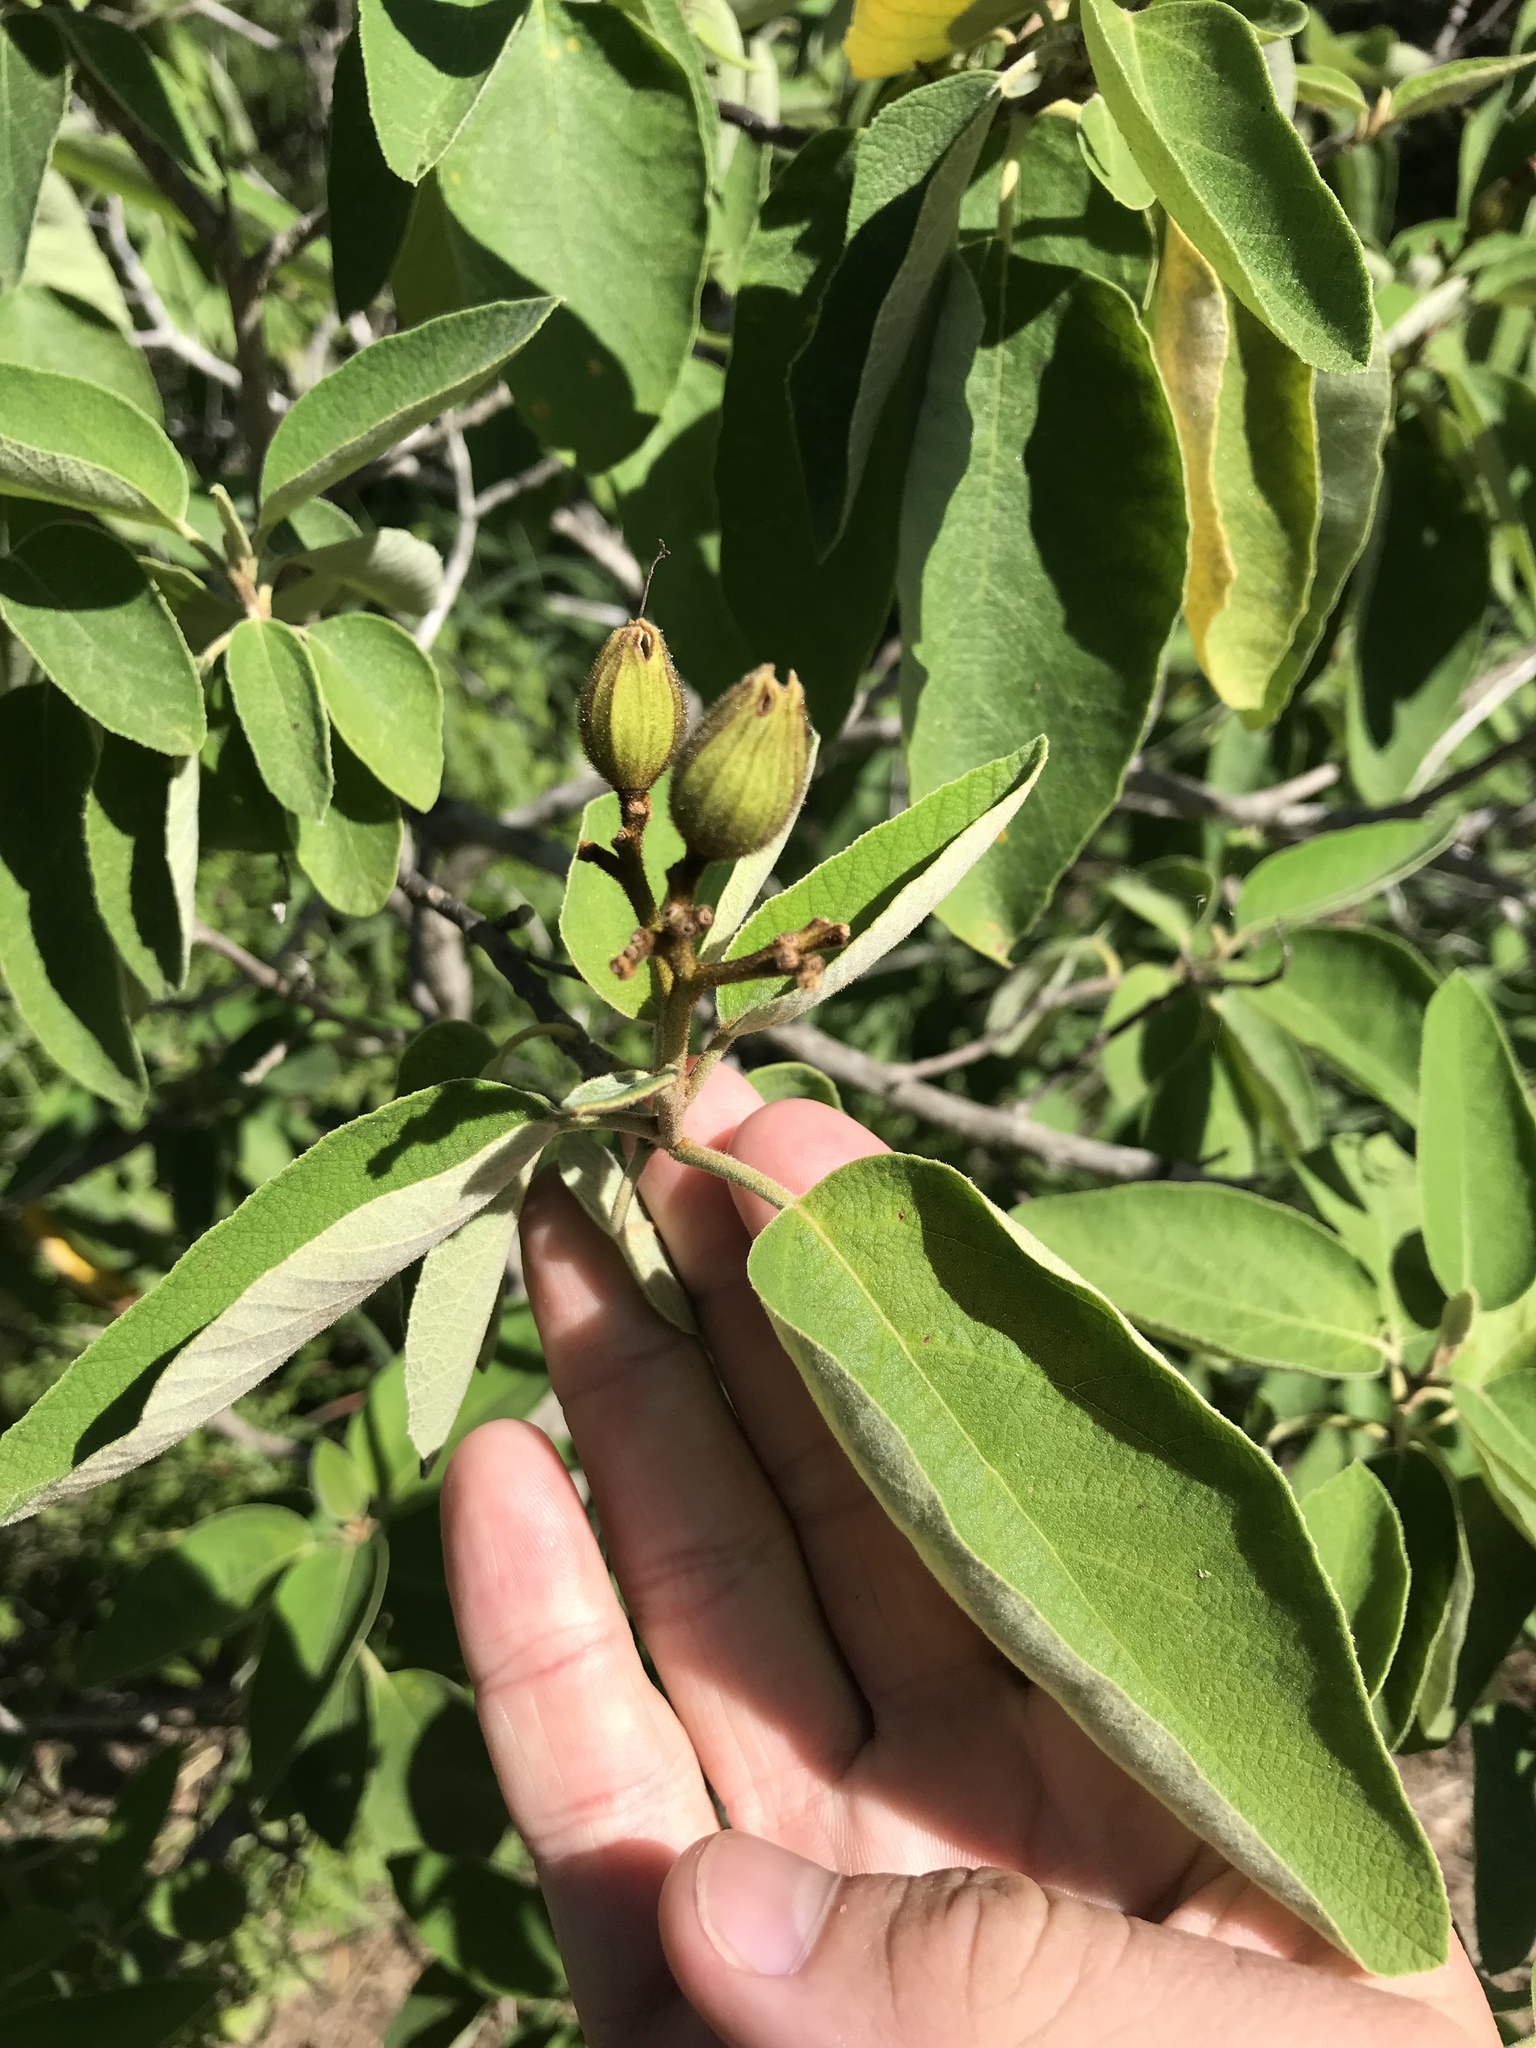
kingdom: Plantae
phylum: Tracheophyta
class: Magnoliopsida
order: Boraginales
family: Cordiaceae
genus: Cordia
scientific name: Cordia boissieri
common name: Mexican-olive
